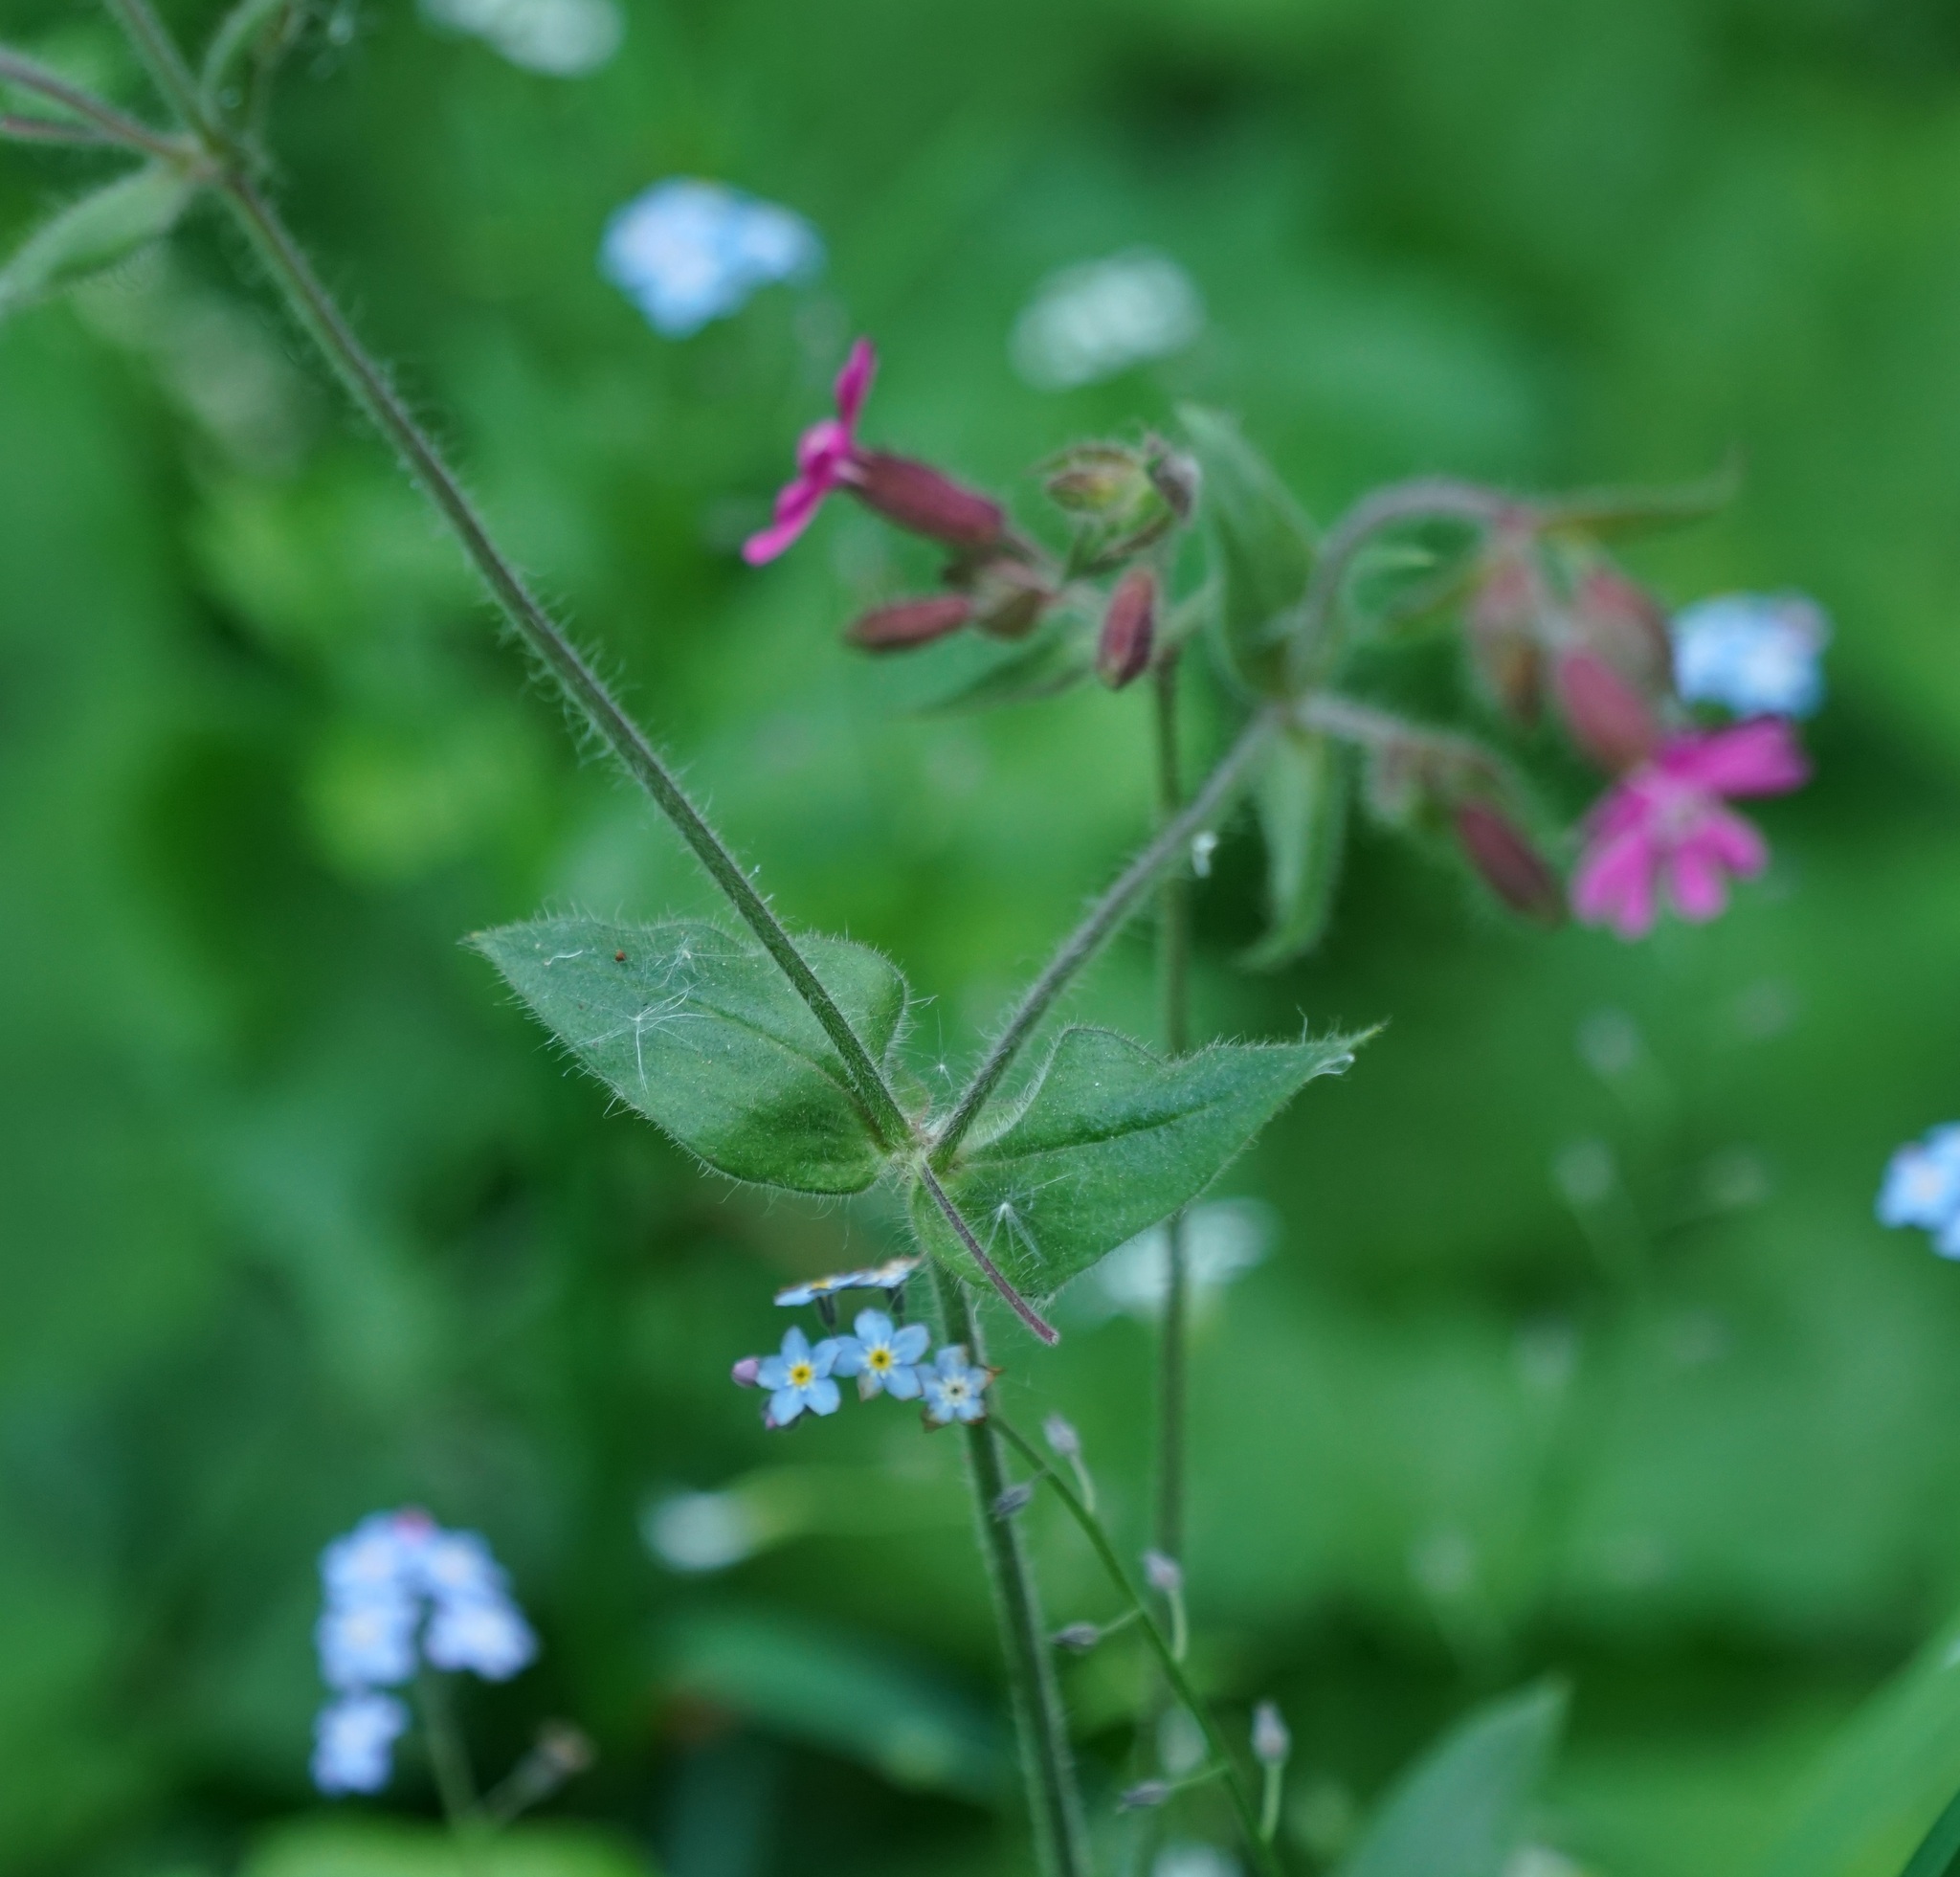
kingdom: Plantae
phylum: Tracheophyta
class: Magnoliopsida
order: Caryophyllales
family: Caryophyllaceae
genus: Silene
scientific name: Silene dioica
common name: Red campion
